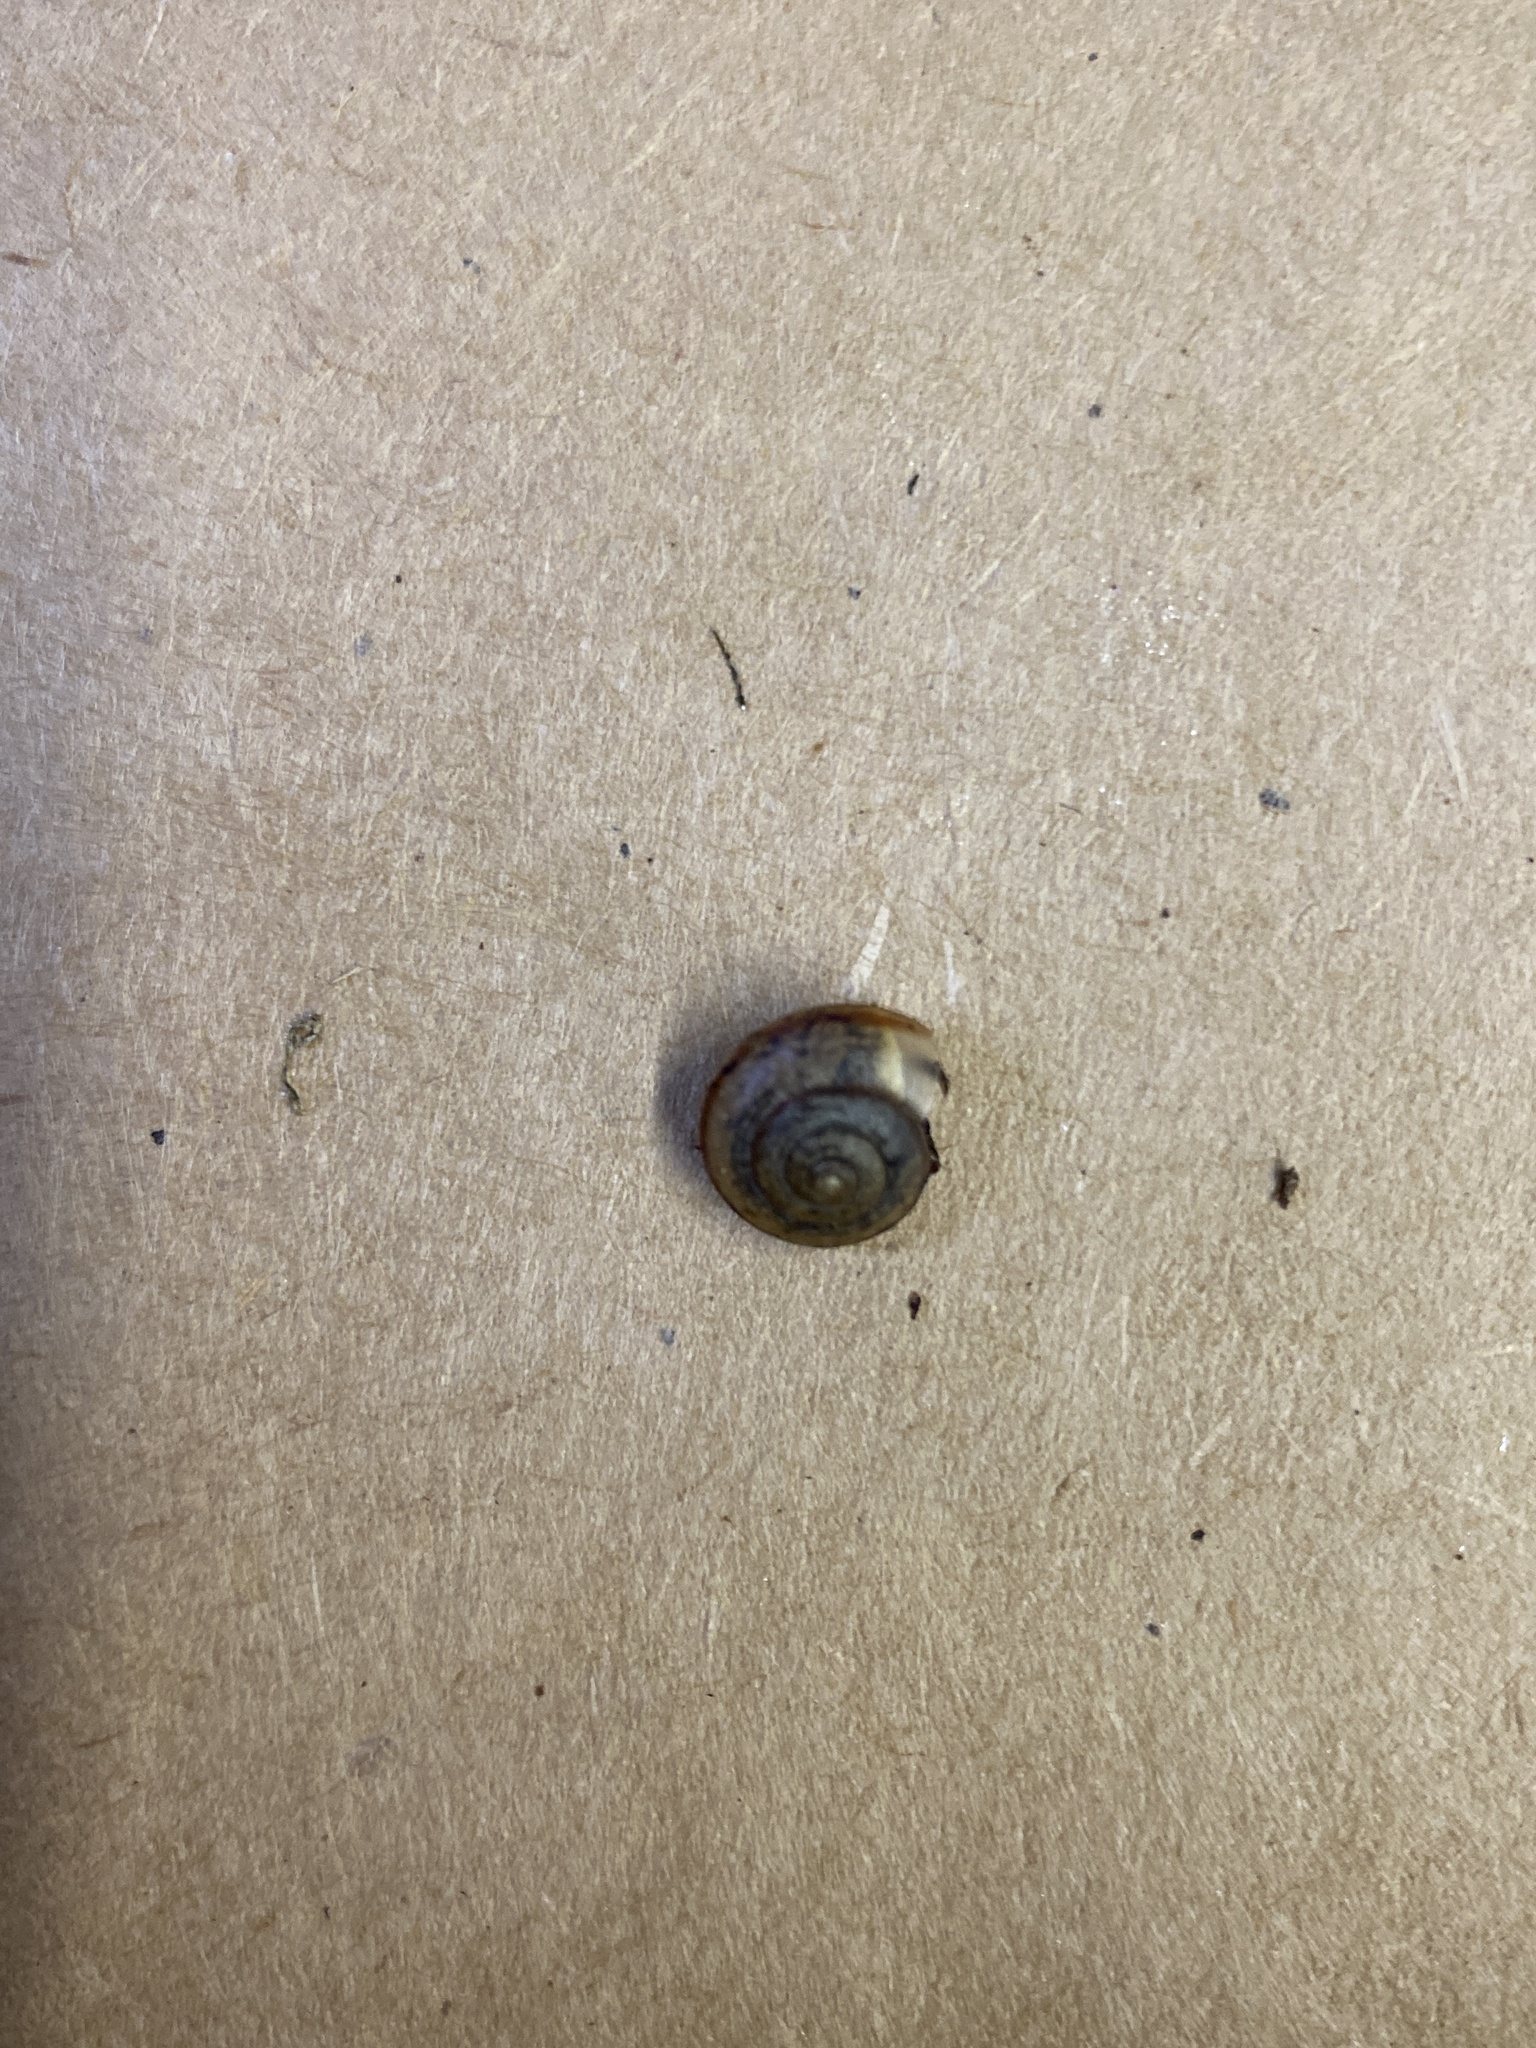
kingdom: Animalia
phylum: Mollusca
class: Gastropoda
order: Stylommatophora
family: Camaenidae
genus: Bradybaena
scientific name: Bradybaena similaris
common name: Asian trampsnail
